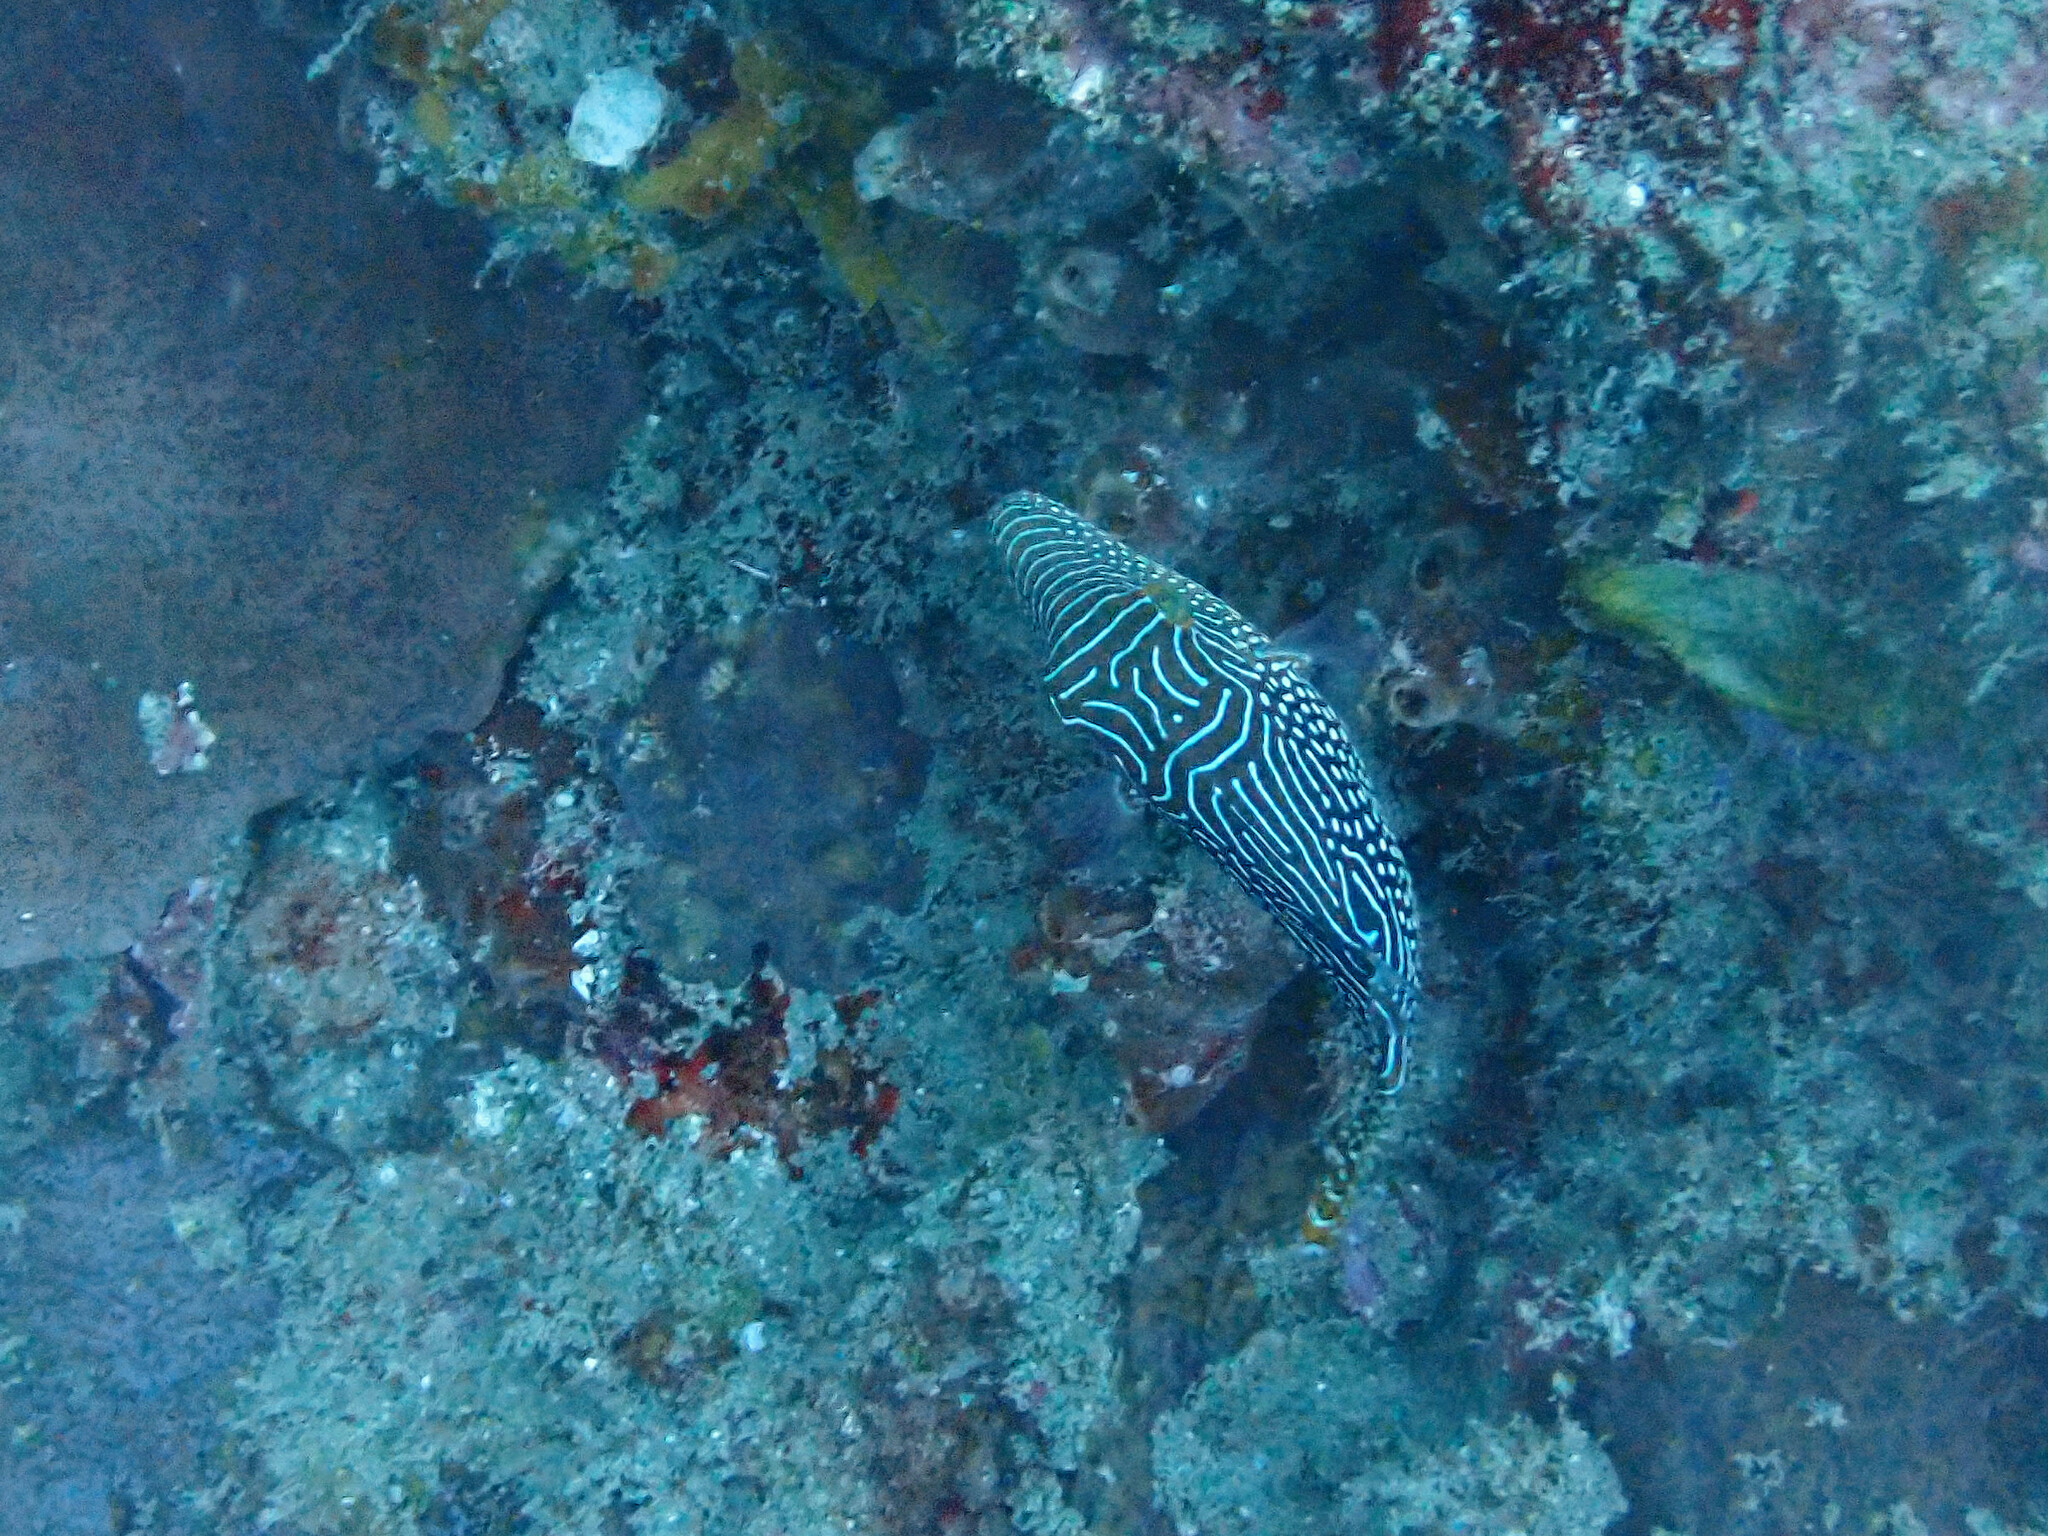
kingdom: Animalia
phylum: Chordata
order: Tetraodontiformes
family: Tetraodontidae
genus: Canthigaster
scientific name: Canthigaster petersii
